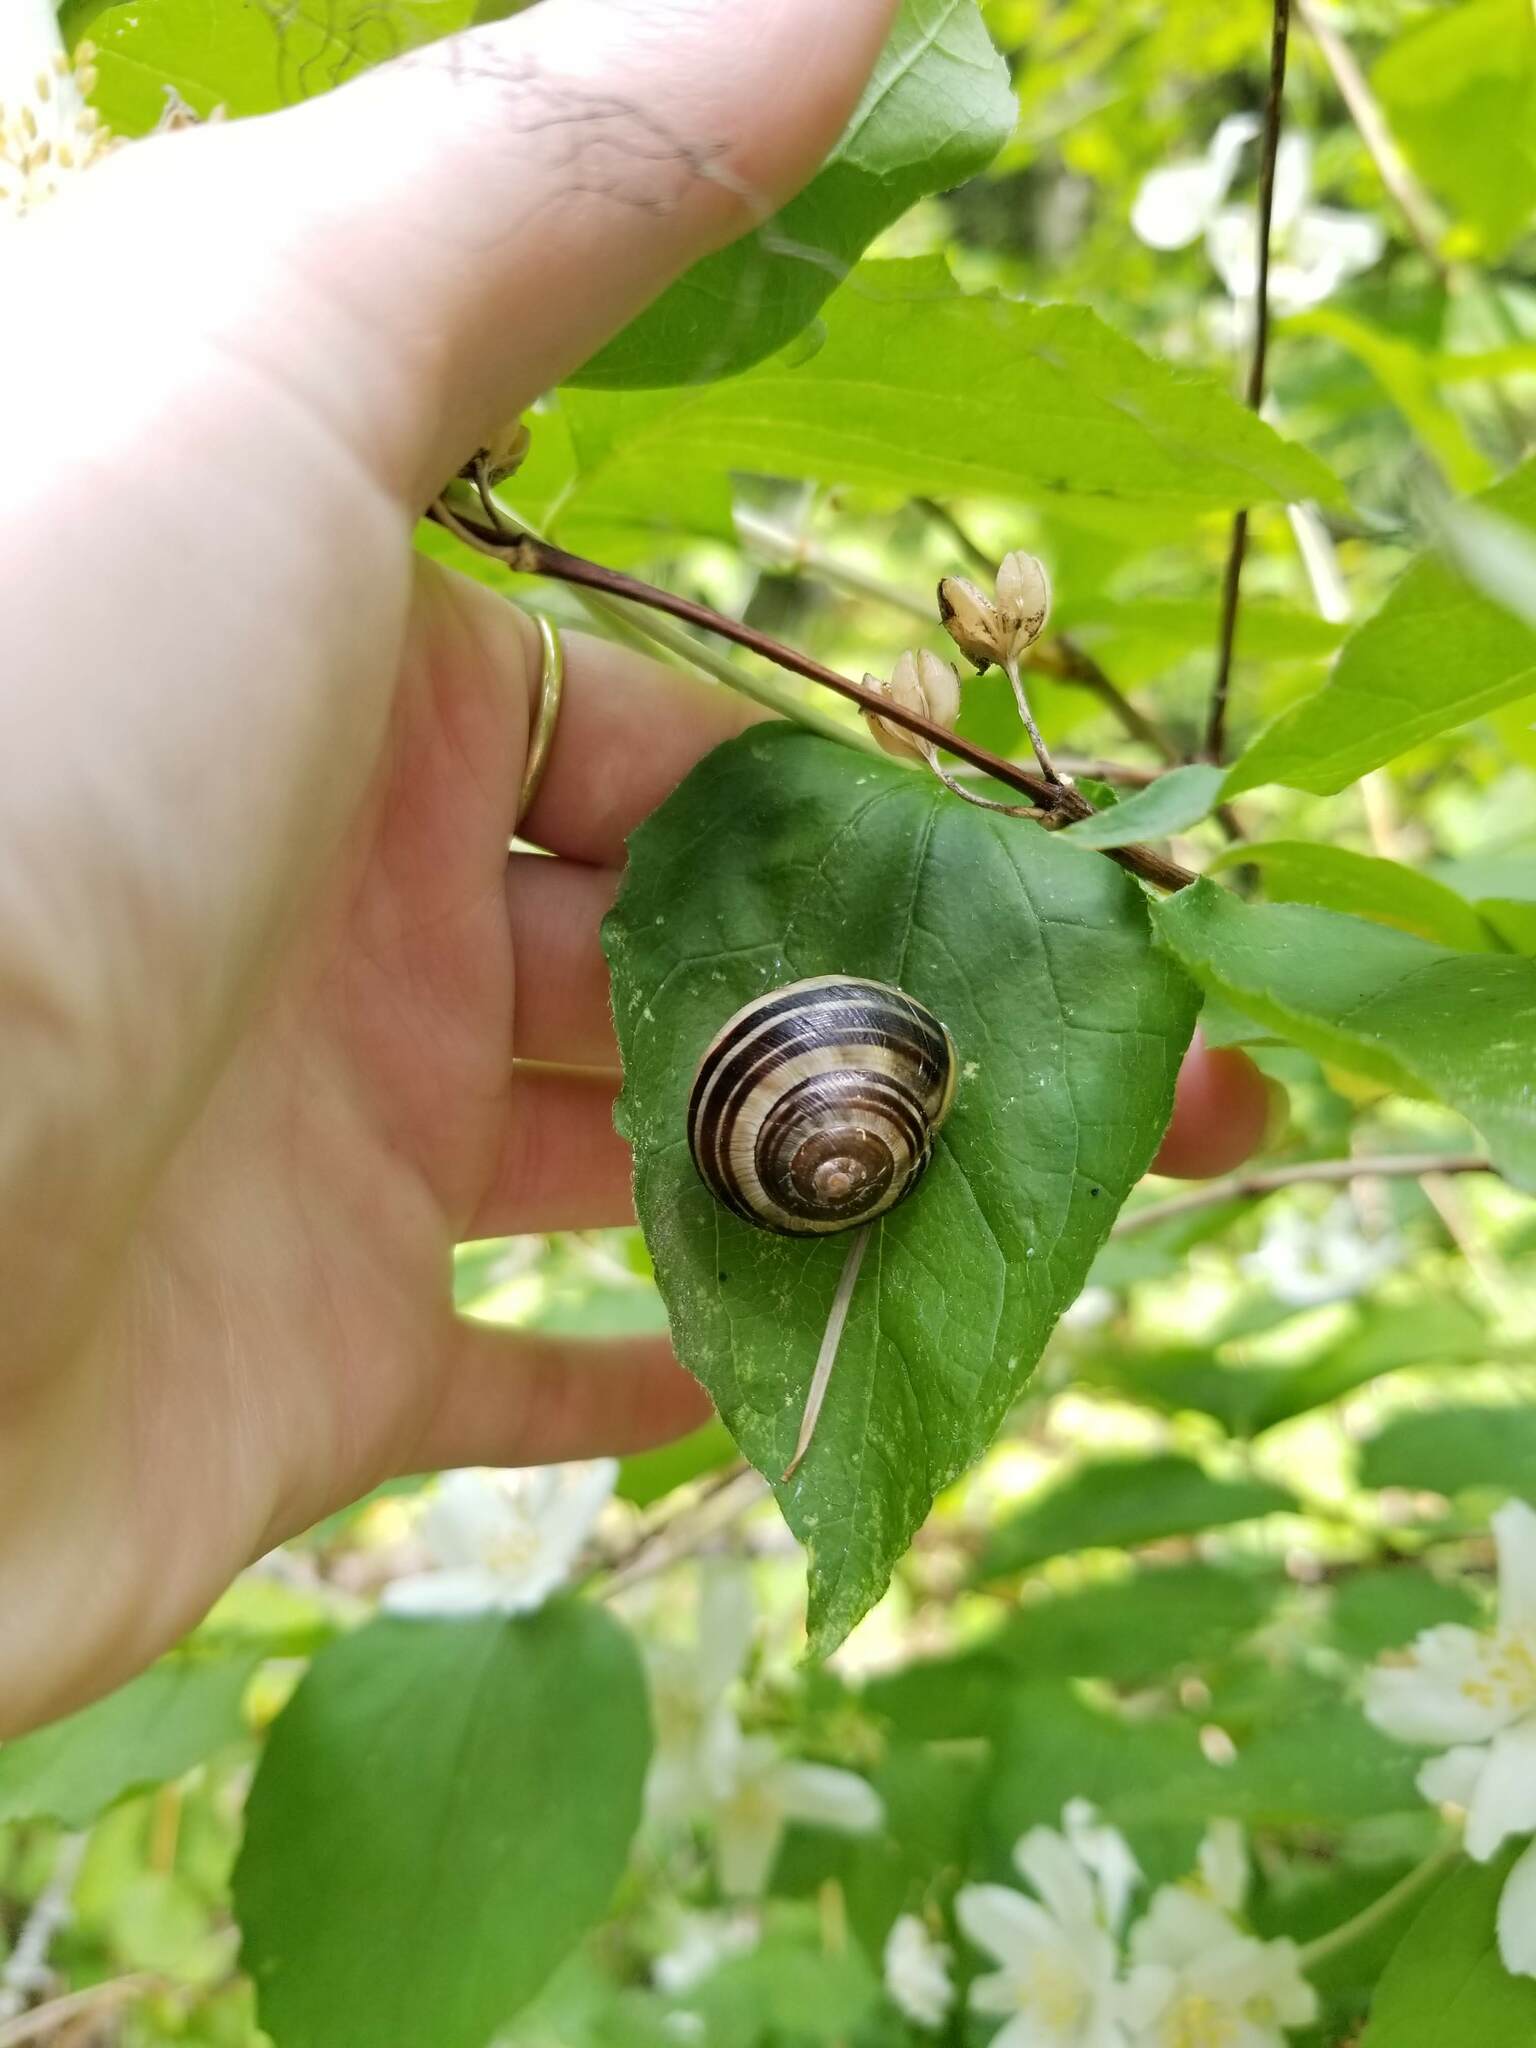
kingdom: Animalia
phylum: Mollusca
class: Gastropoda
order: Stylommatophora
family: Helicidae
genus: Cepaea
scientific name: Cepaea nemoralis
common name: Grovesnail
